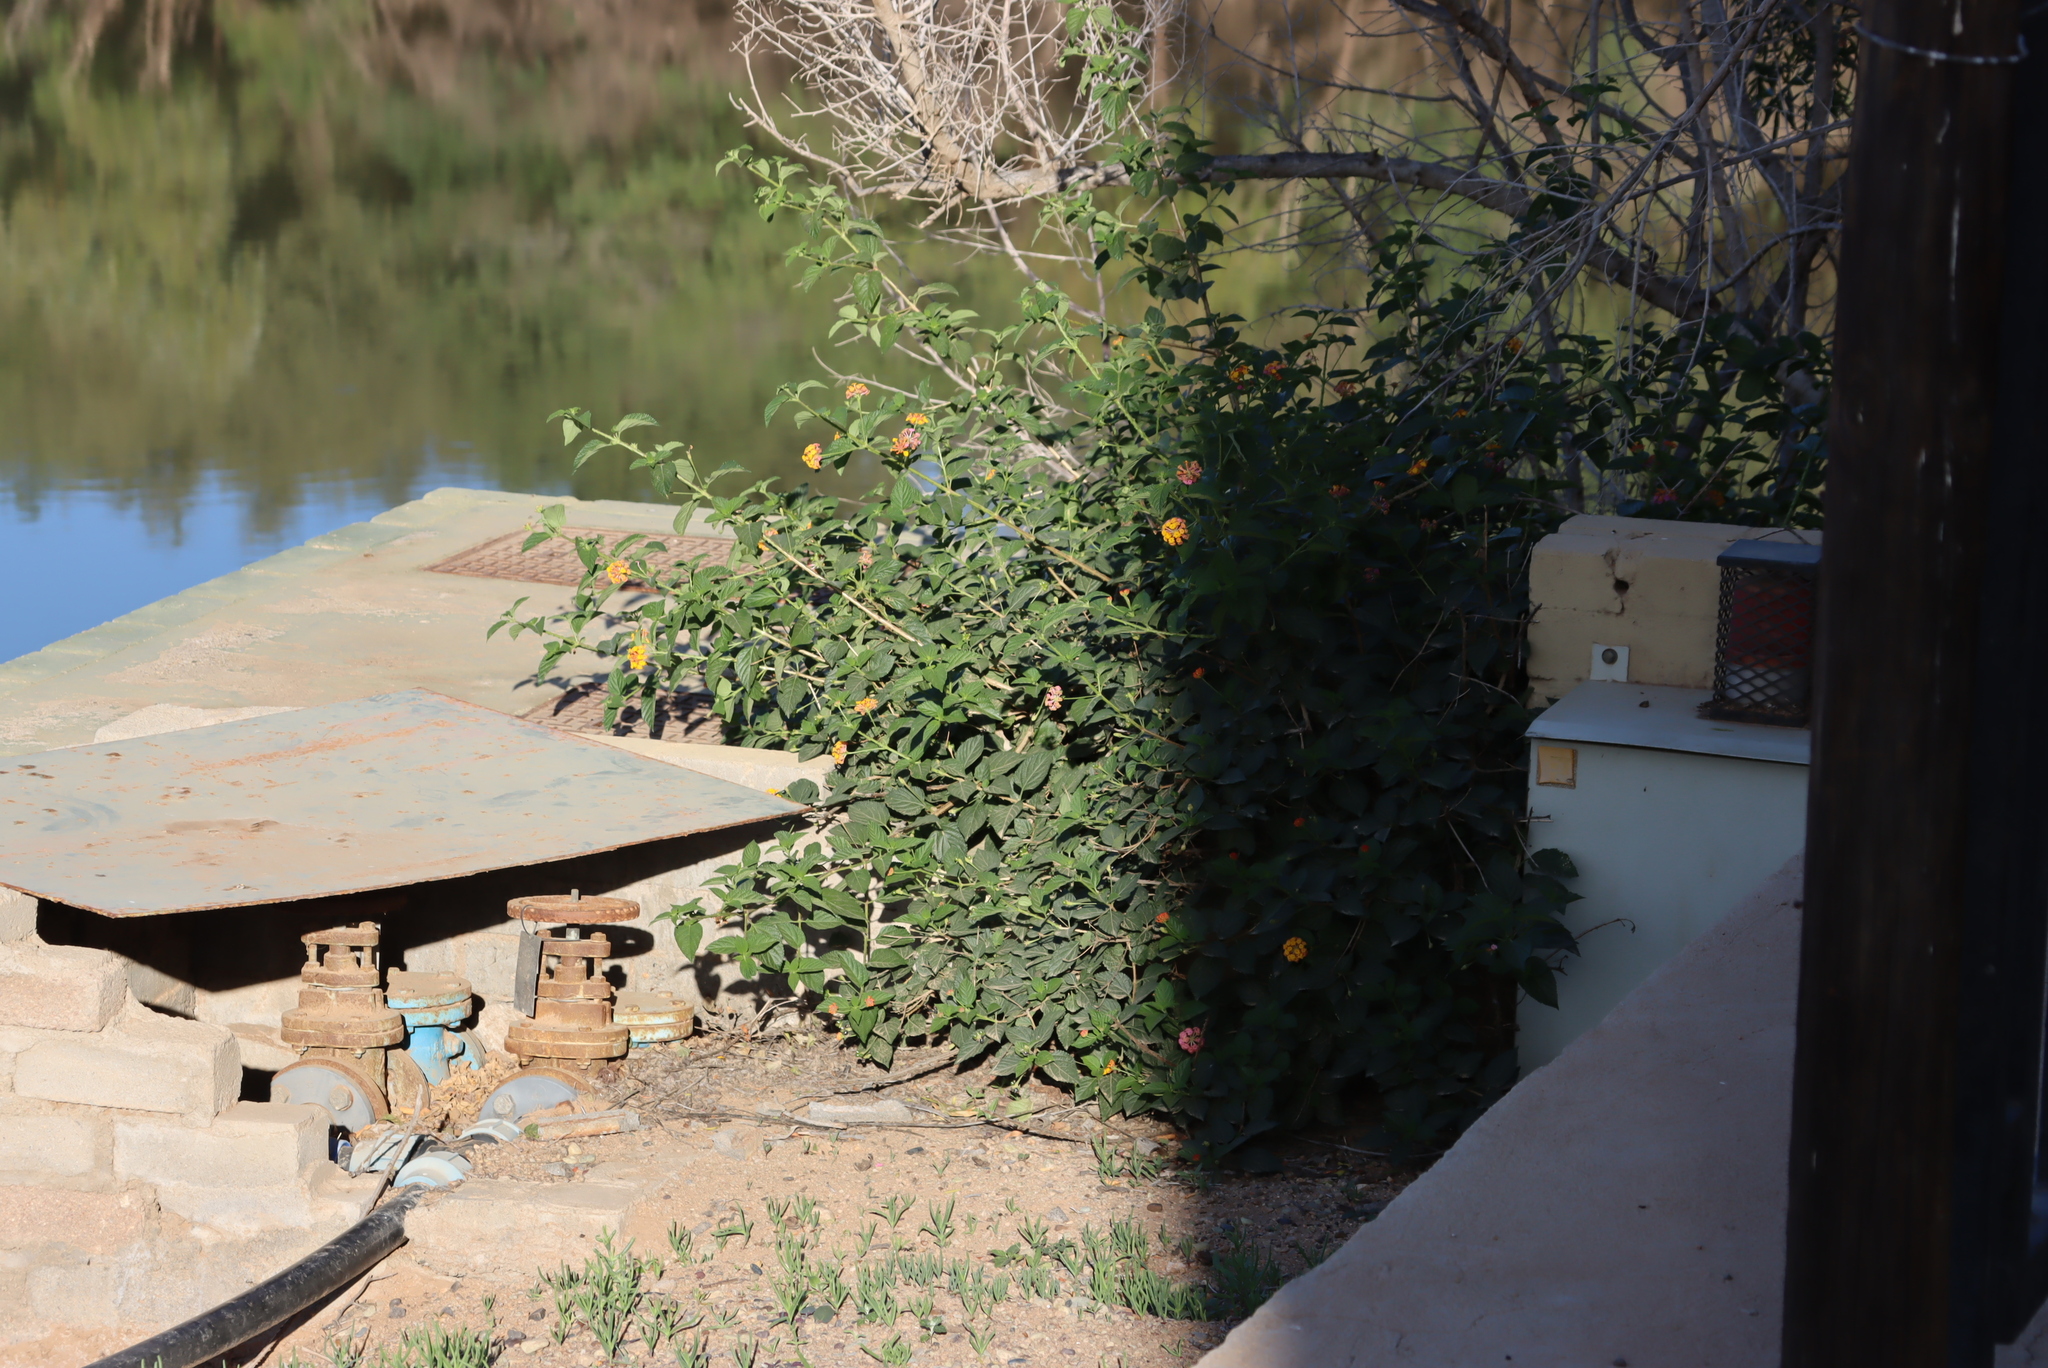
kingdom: Plantae
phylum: Tracheophyta
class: Magnoliopsida
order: Lamiales
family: Verbenaceae
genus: Lantana
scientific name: Lantana camara
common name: Lantana
